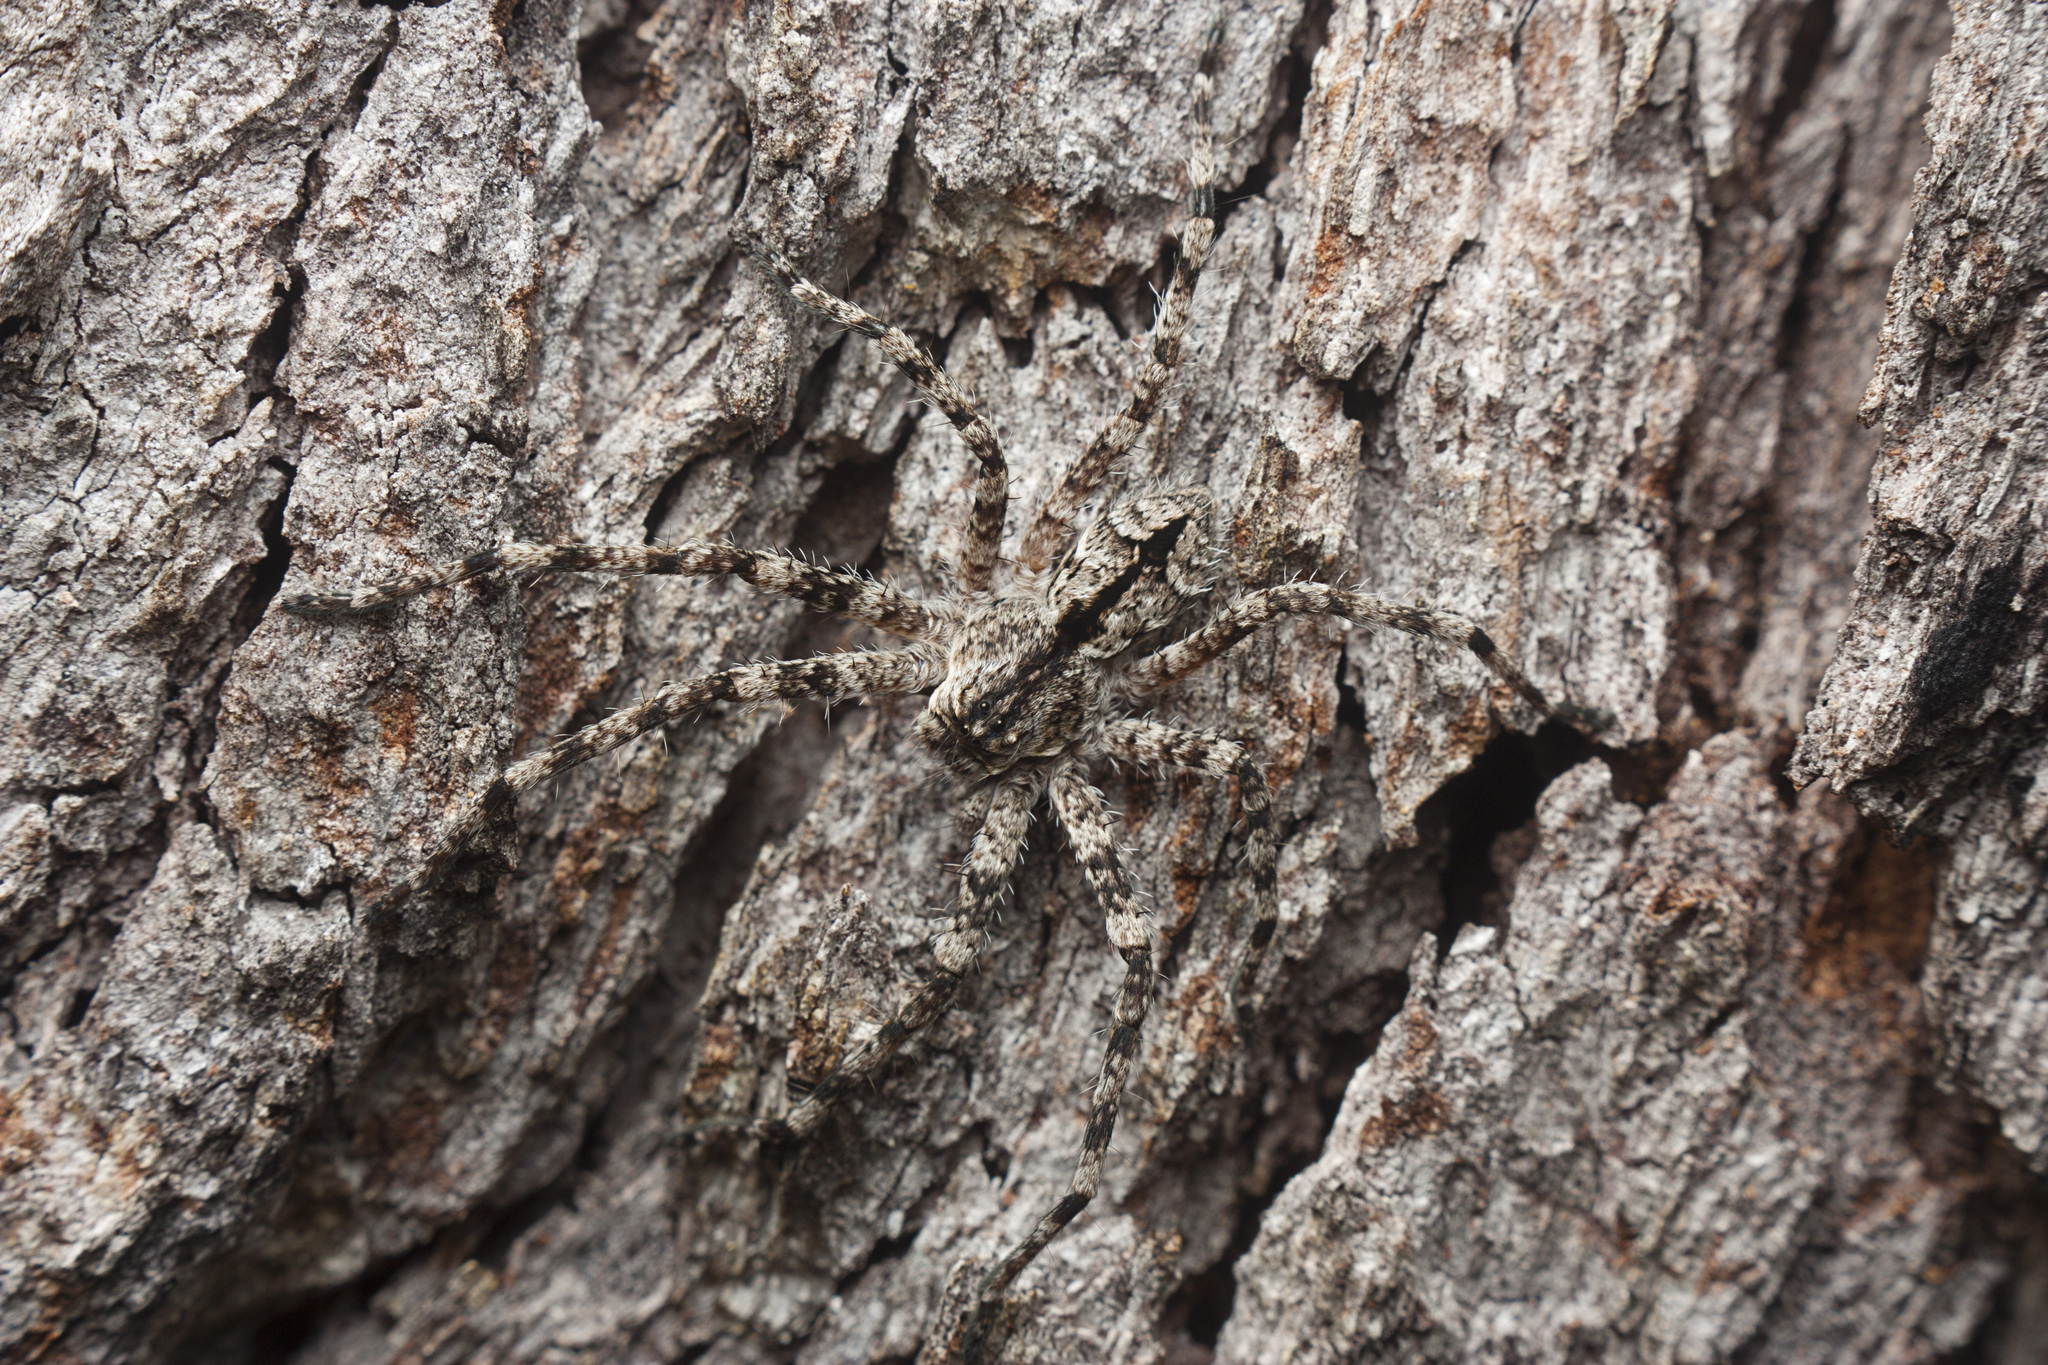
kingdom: Animalia
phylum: Arthropoda
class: Arachnida
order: Araneae
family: Sparassidae
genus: Pediana
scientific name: Pediana regina
